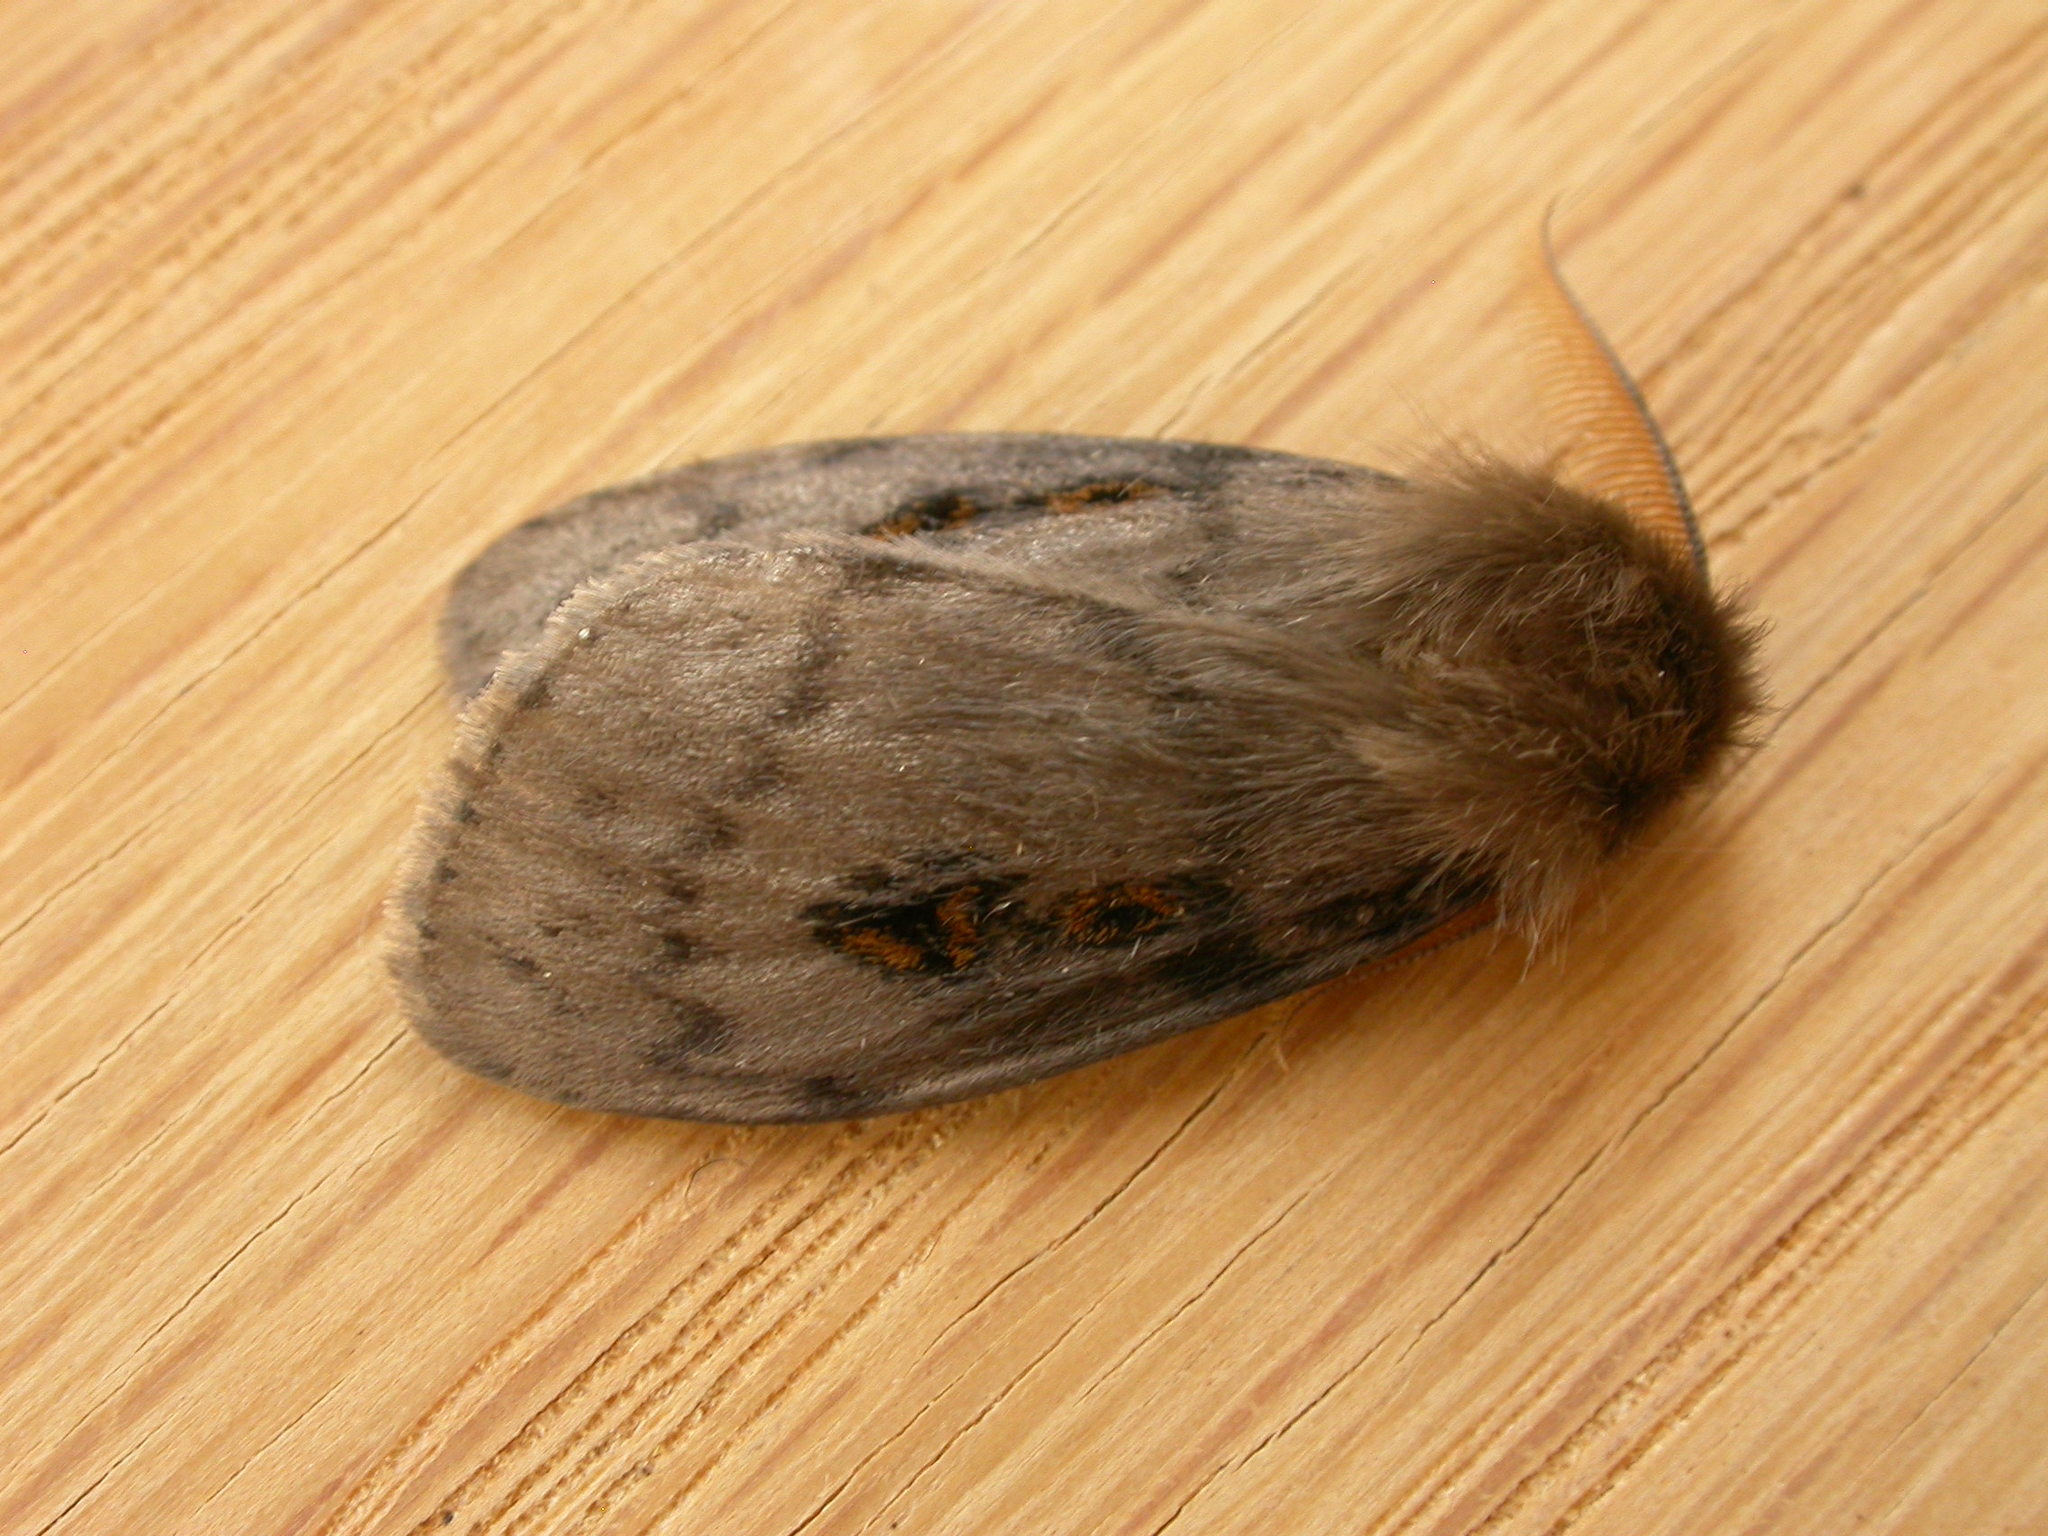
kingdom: Animalia
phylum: Arthropoda
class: Insecta
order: Lepidoptera
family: Erebidae
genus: Leptocneria
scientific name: Leptocneria reducta
